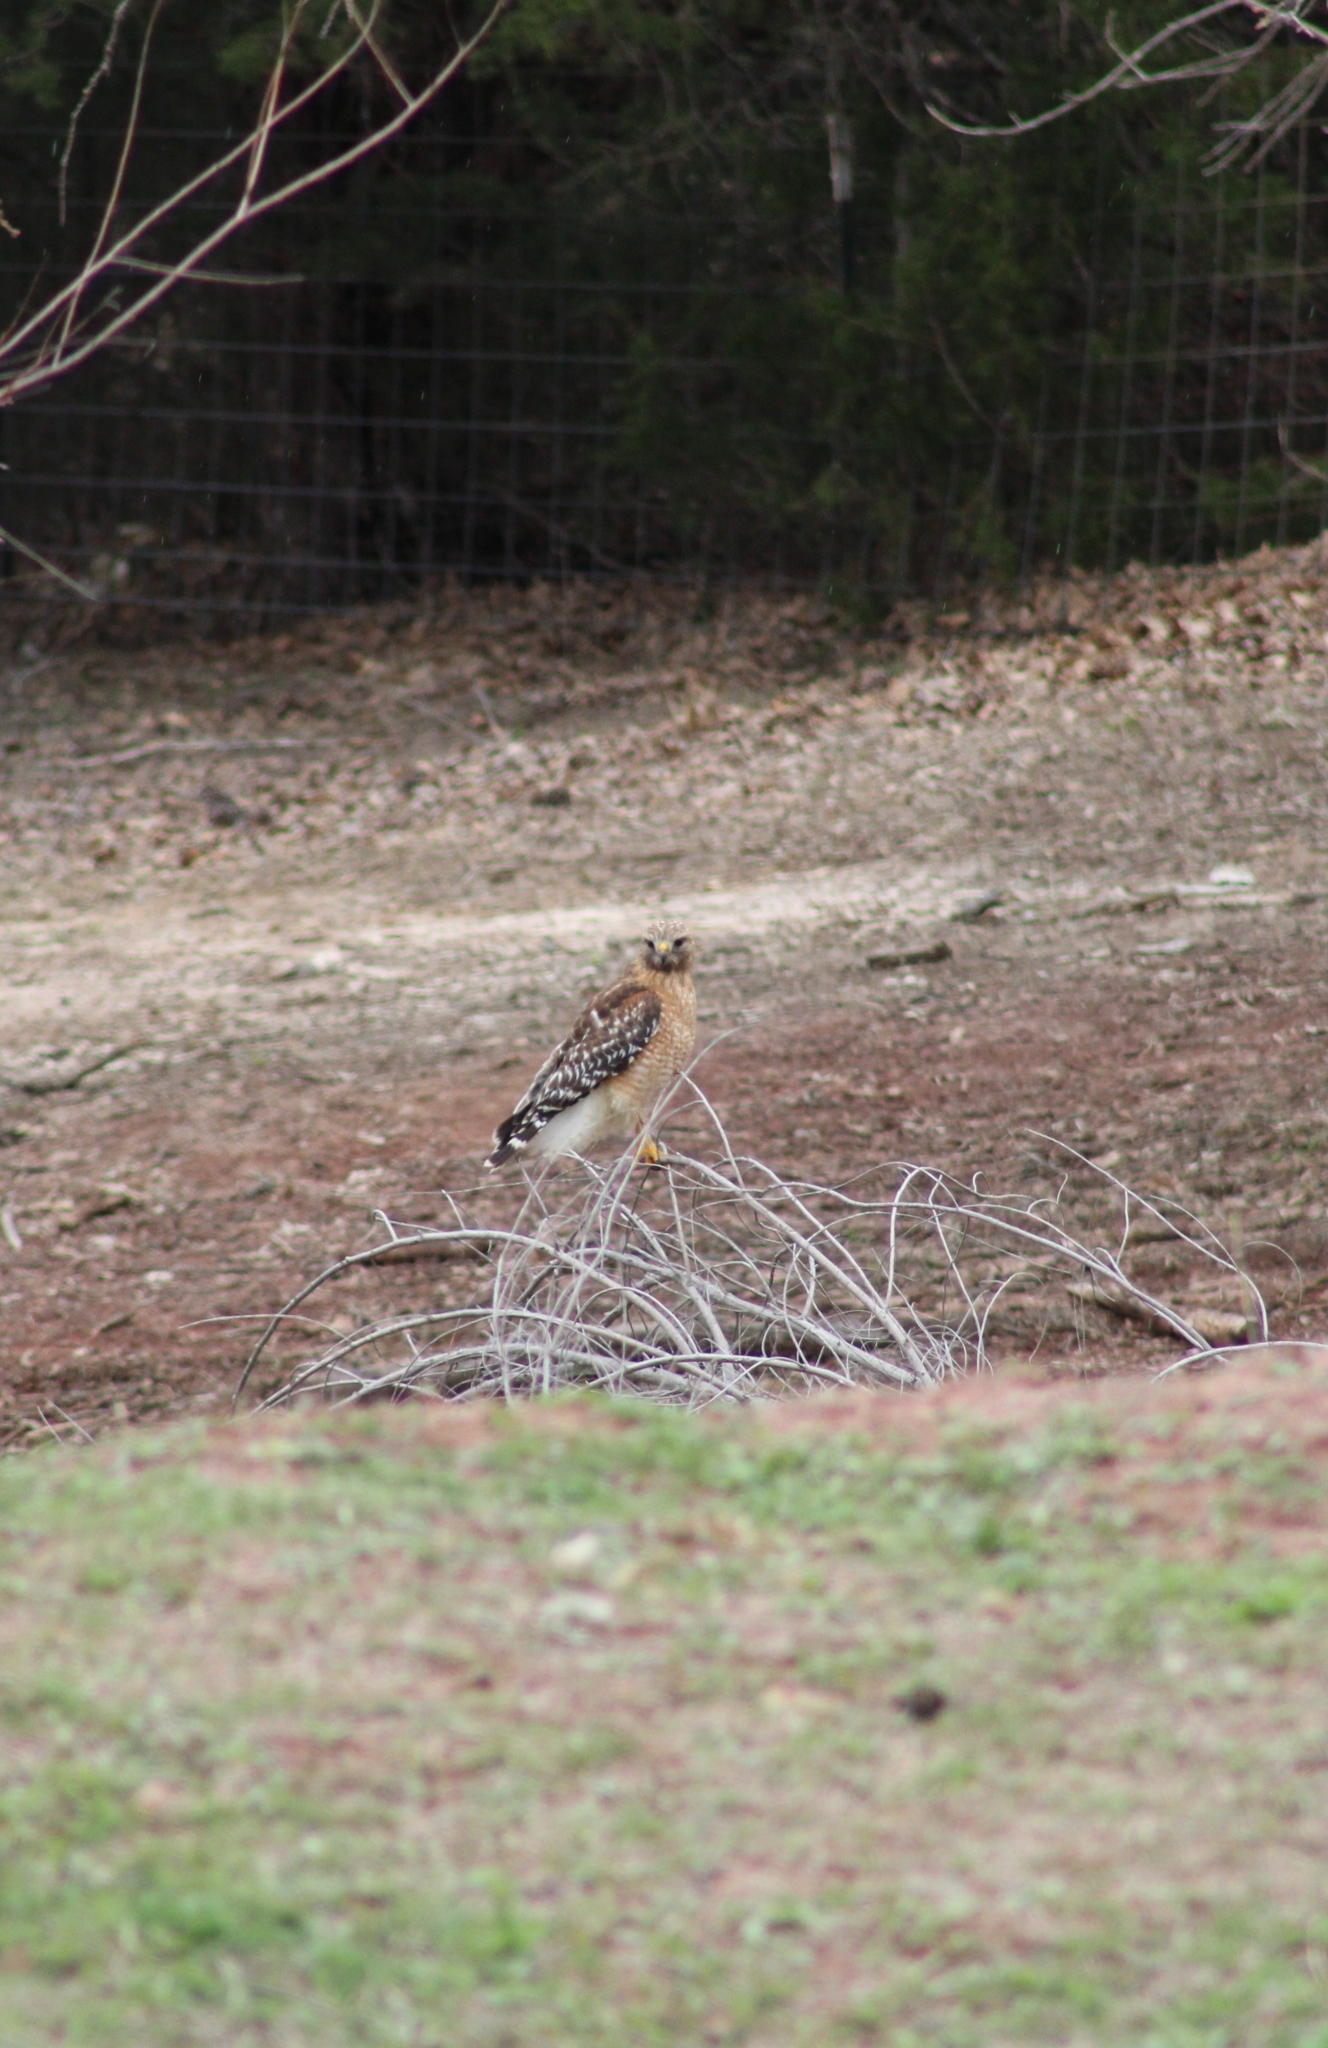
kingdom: Animalia
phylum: Chordata
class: Aves
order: Accipitriformes
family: Accipitridae
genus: Buteo
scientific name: Buteo lineatus
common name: Red-shouldered hawk
